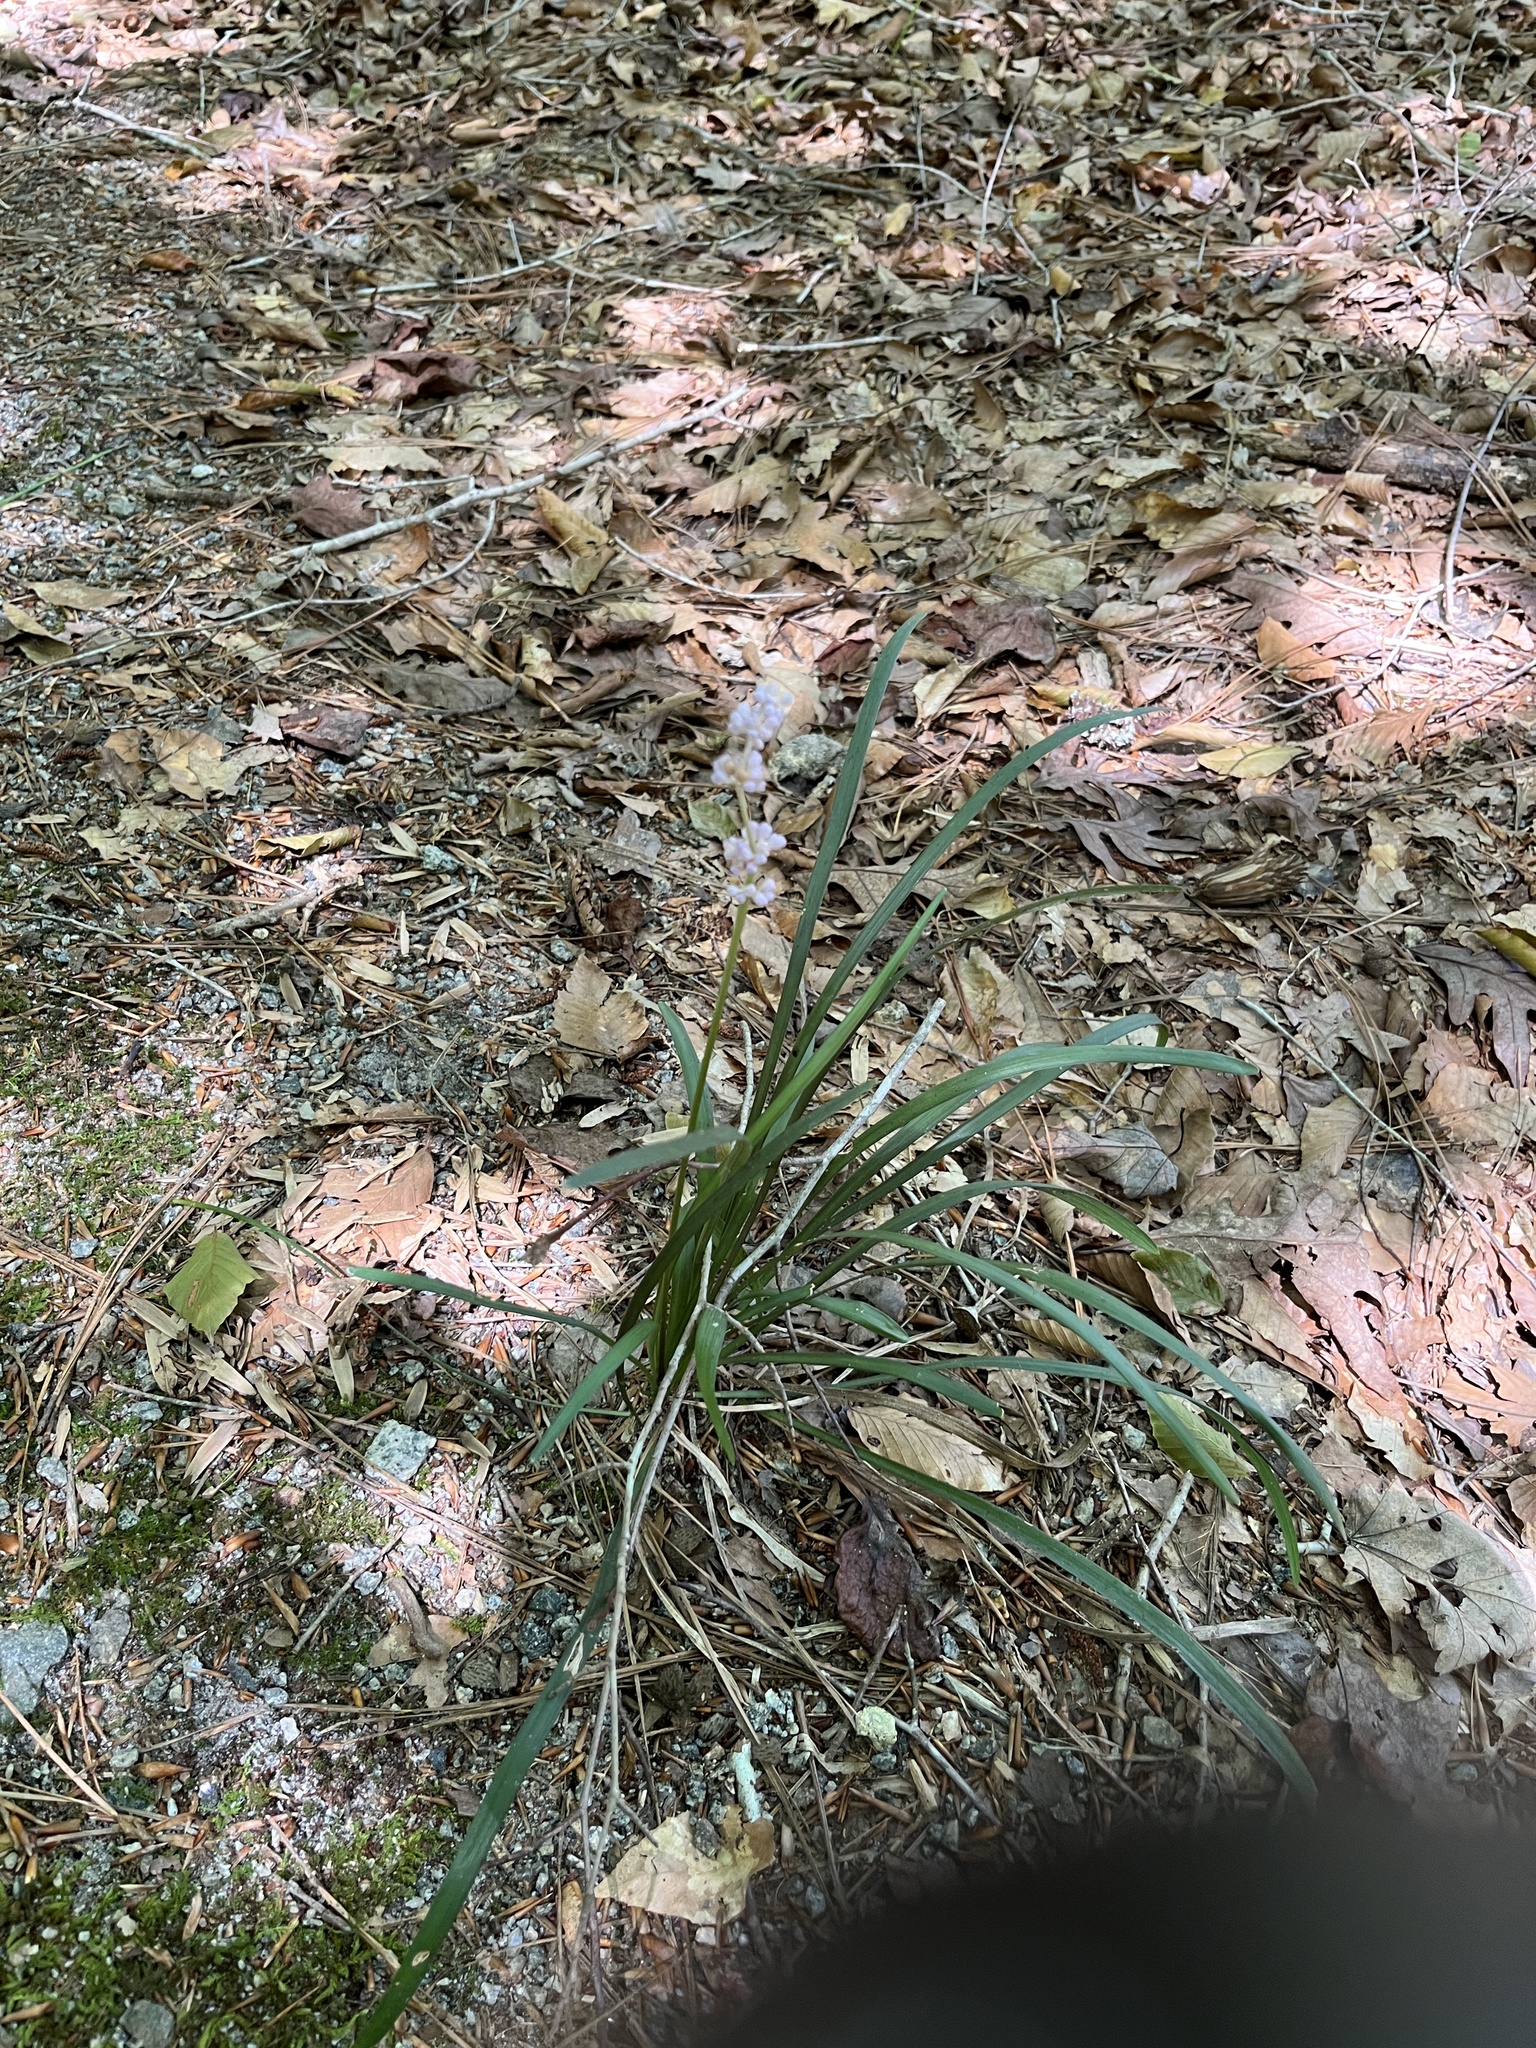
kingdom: Plantae
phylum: Tracheophyta
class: Liliopsida
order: Asparagales
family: Asparagaceae
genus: Liriope
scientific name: Liriope muscari
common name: Big blue lilyturf
